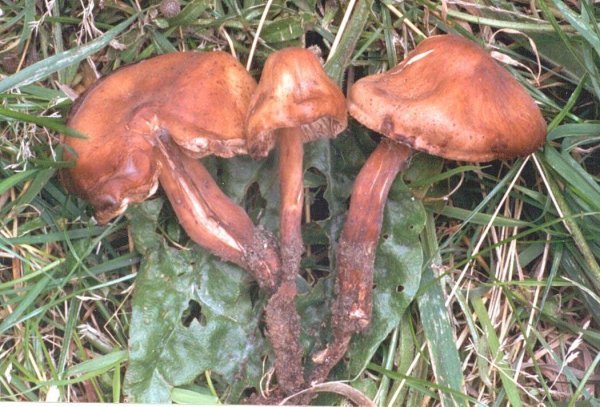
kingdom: Fungi
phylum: Basidiomycota
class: Agaricomycetes
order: Agaricales
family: Omphalotaceae
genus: Gymnopus
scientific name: Gymnopus fusipes
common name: Spindle shank
